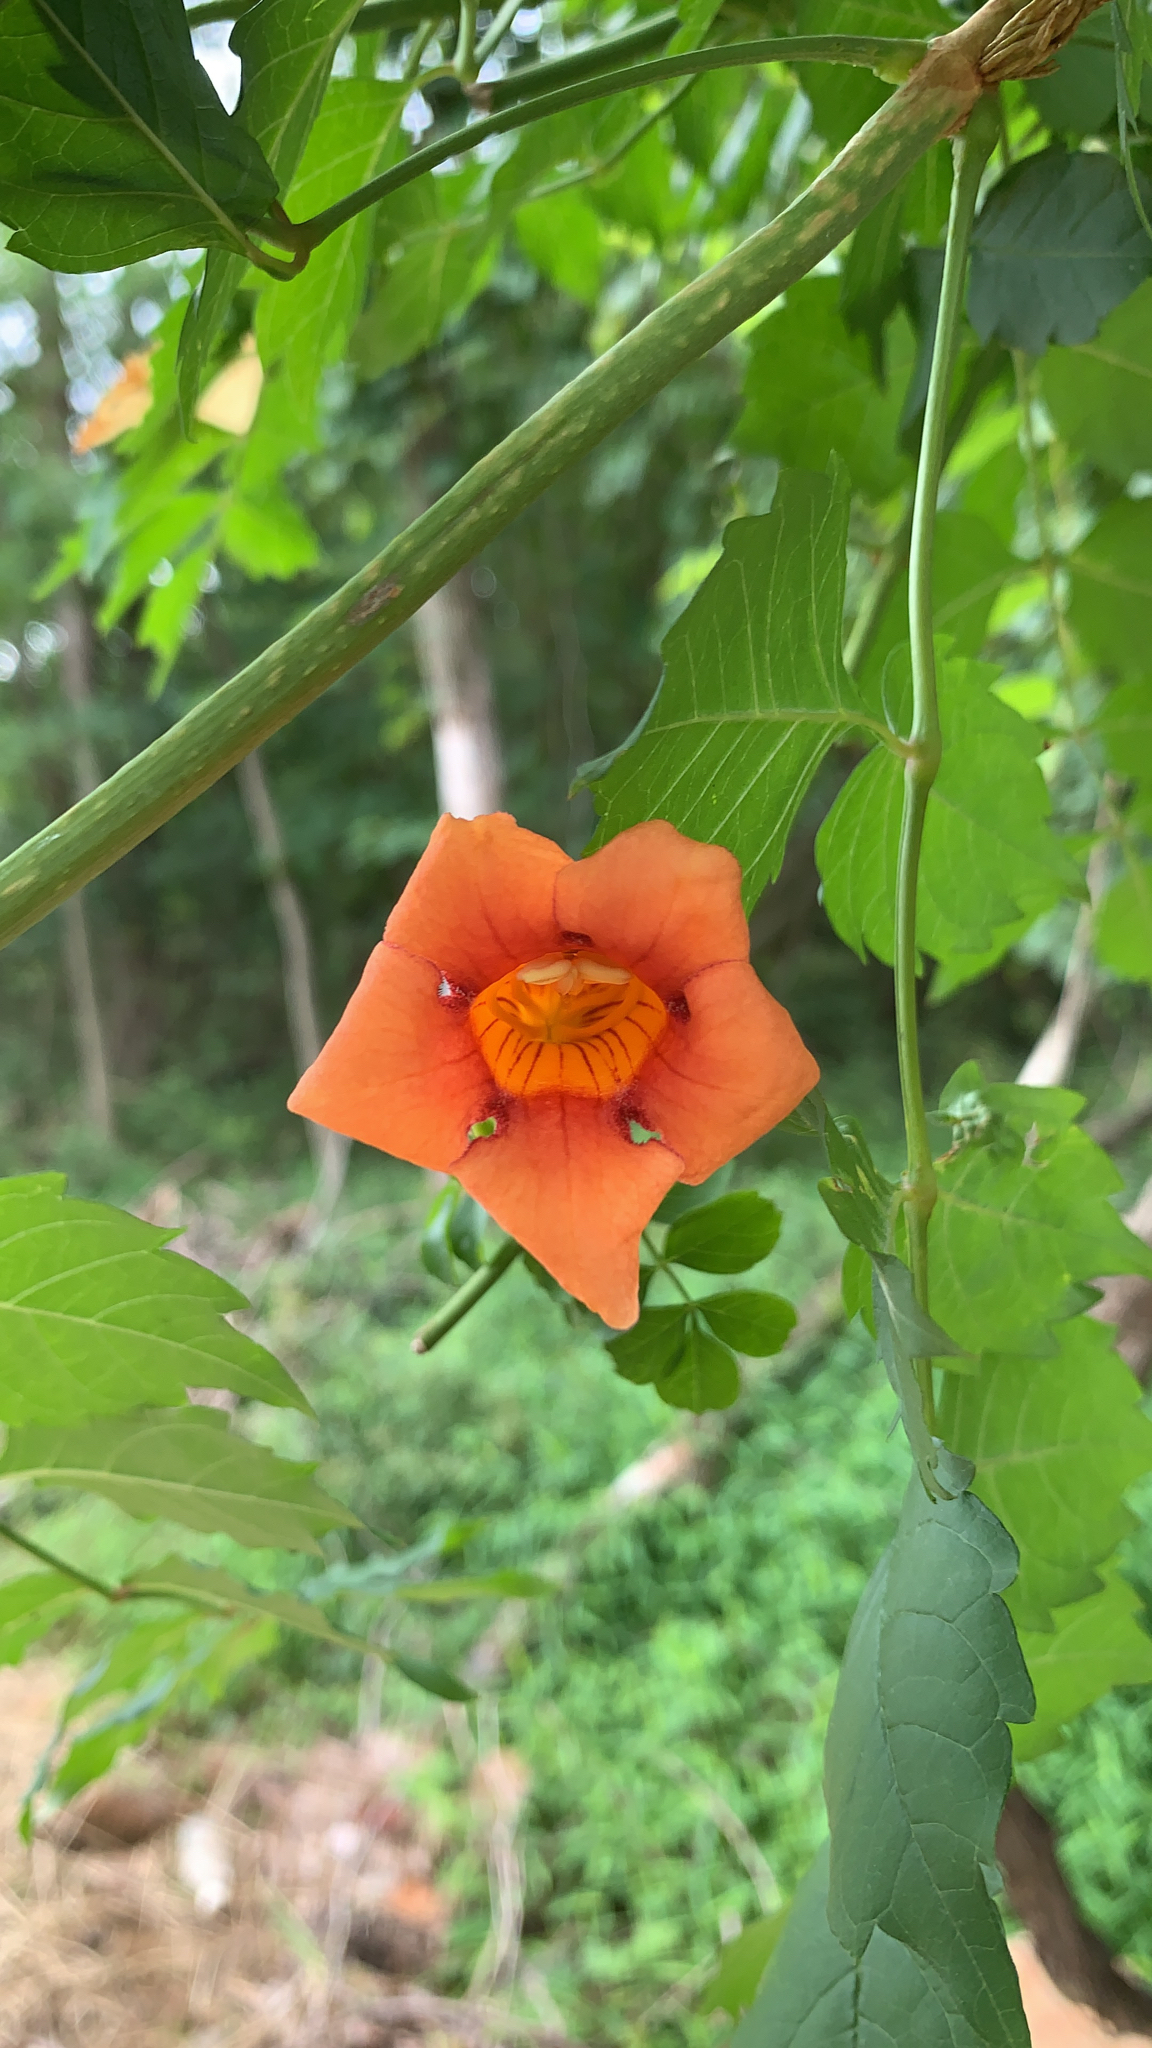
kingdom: Plantae
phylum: Tracheophyta
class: Magnoliopsida
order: Lamiales
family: Bignoniaceae
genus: Campsis
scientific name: Campsis radicans
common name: Trumpet-creeper
